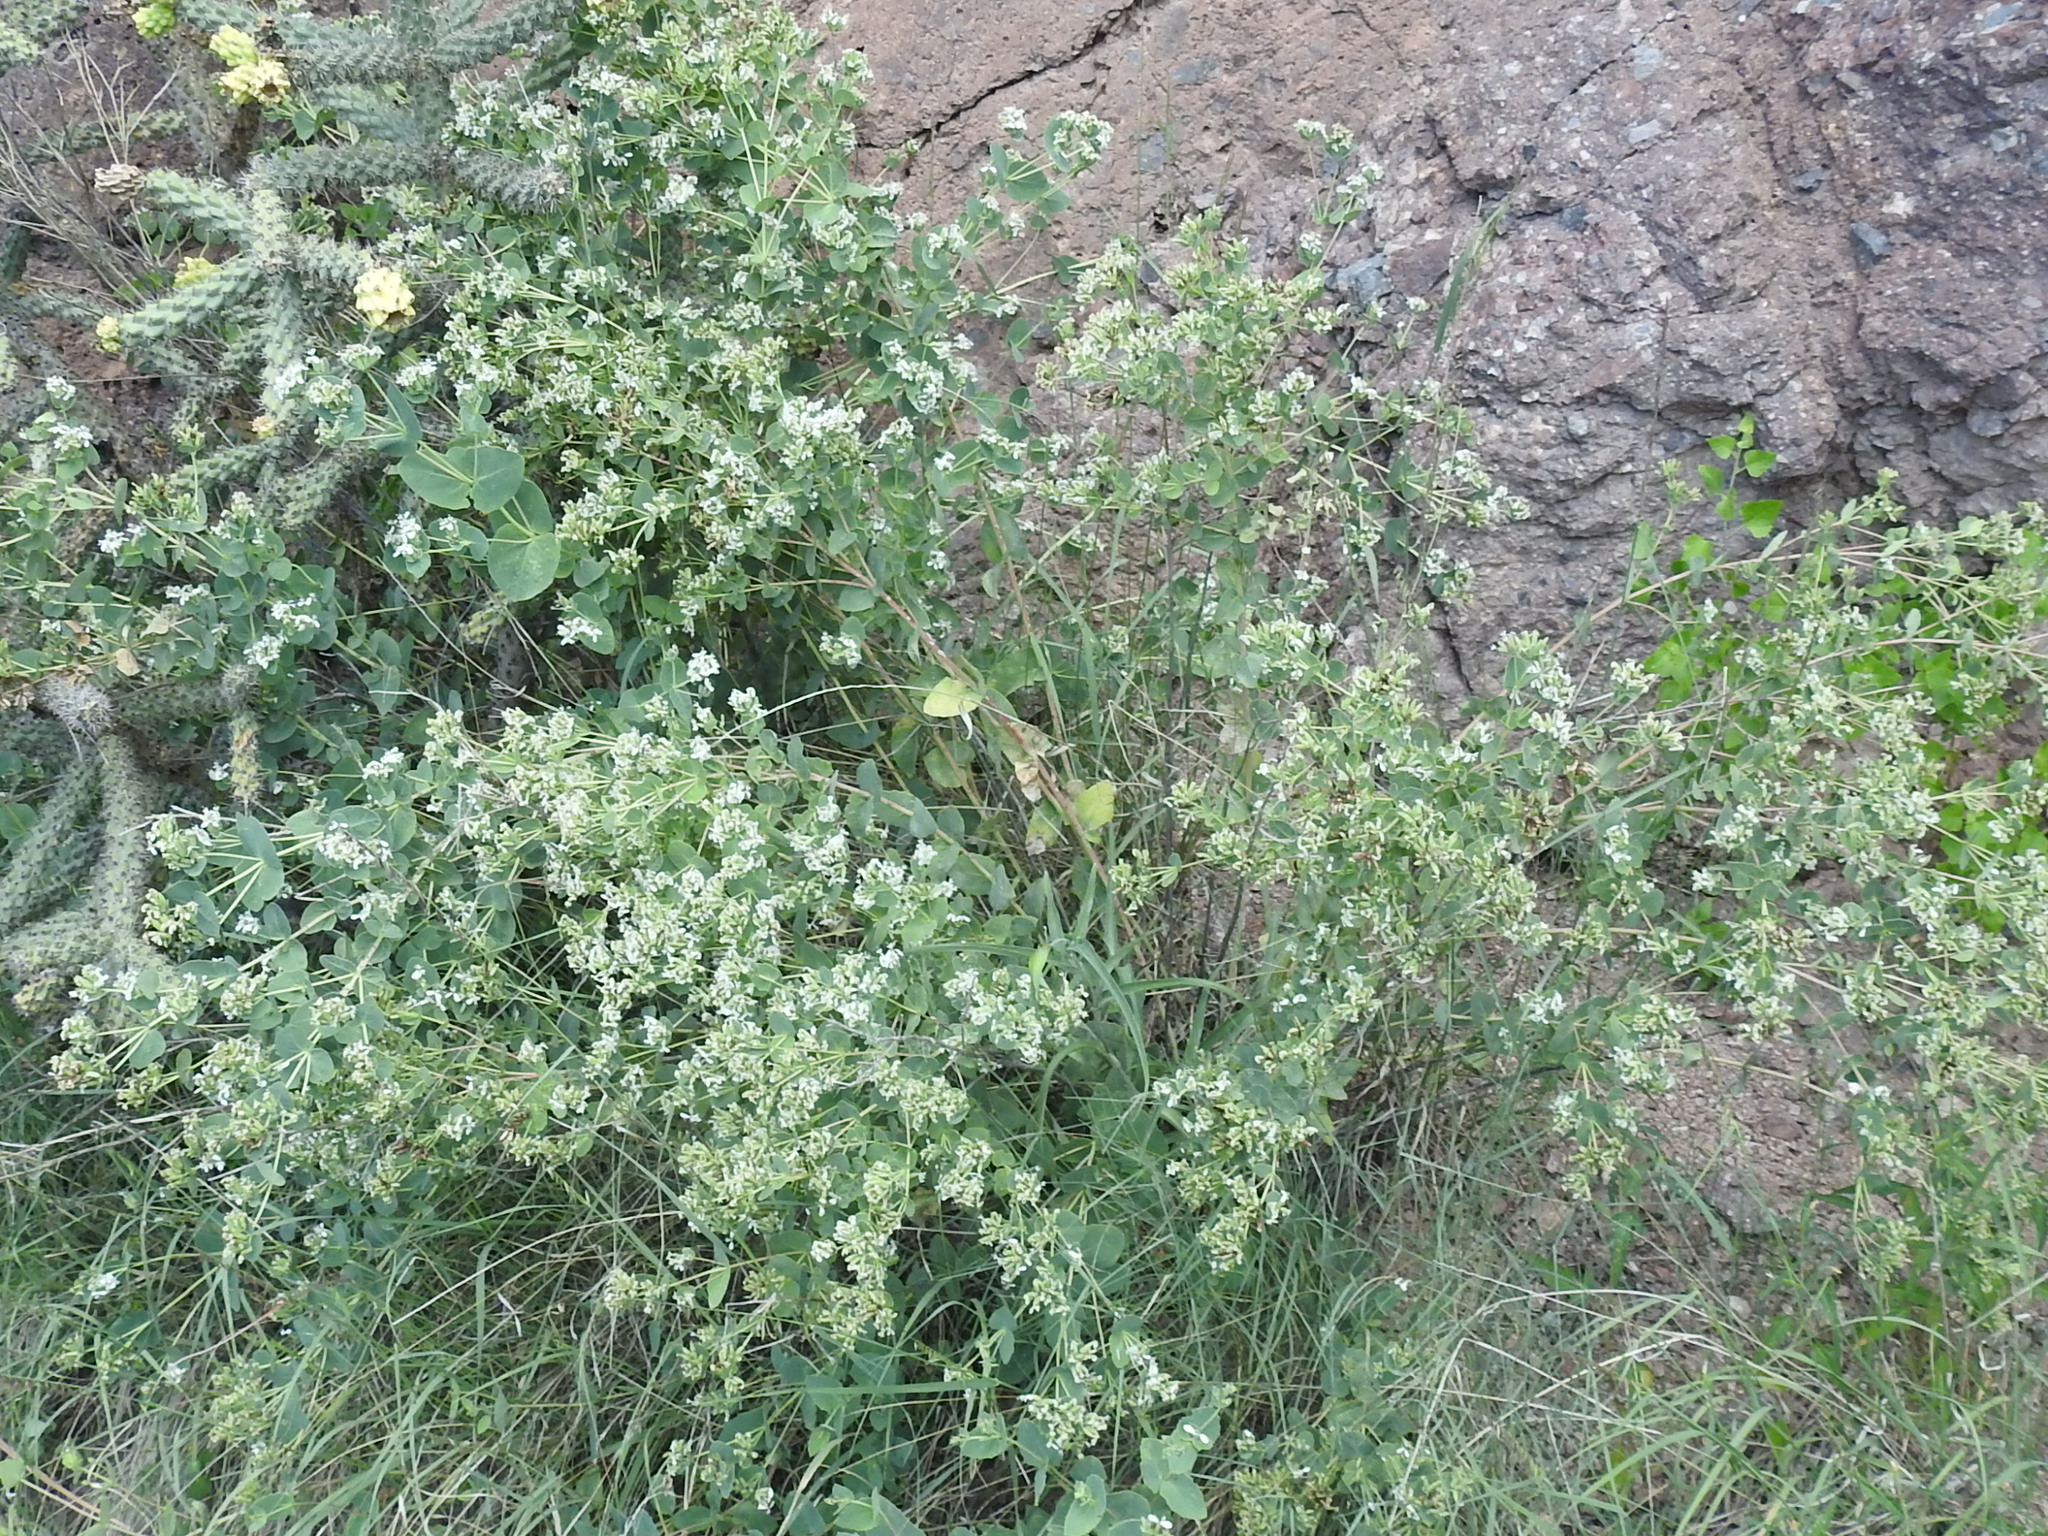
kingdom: Plantae
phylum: Tracheophyta
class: Magnoliopsida
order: Asterales
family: Asteraceae
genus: Guardiola
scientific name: Guardiola platyphylla
